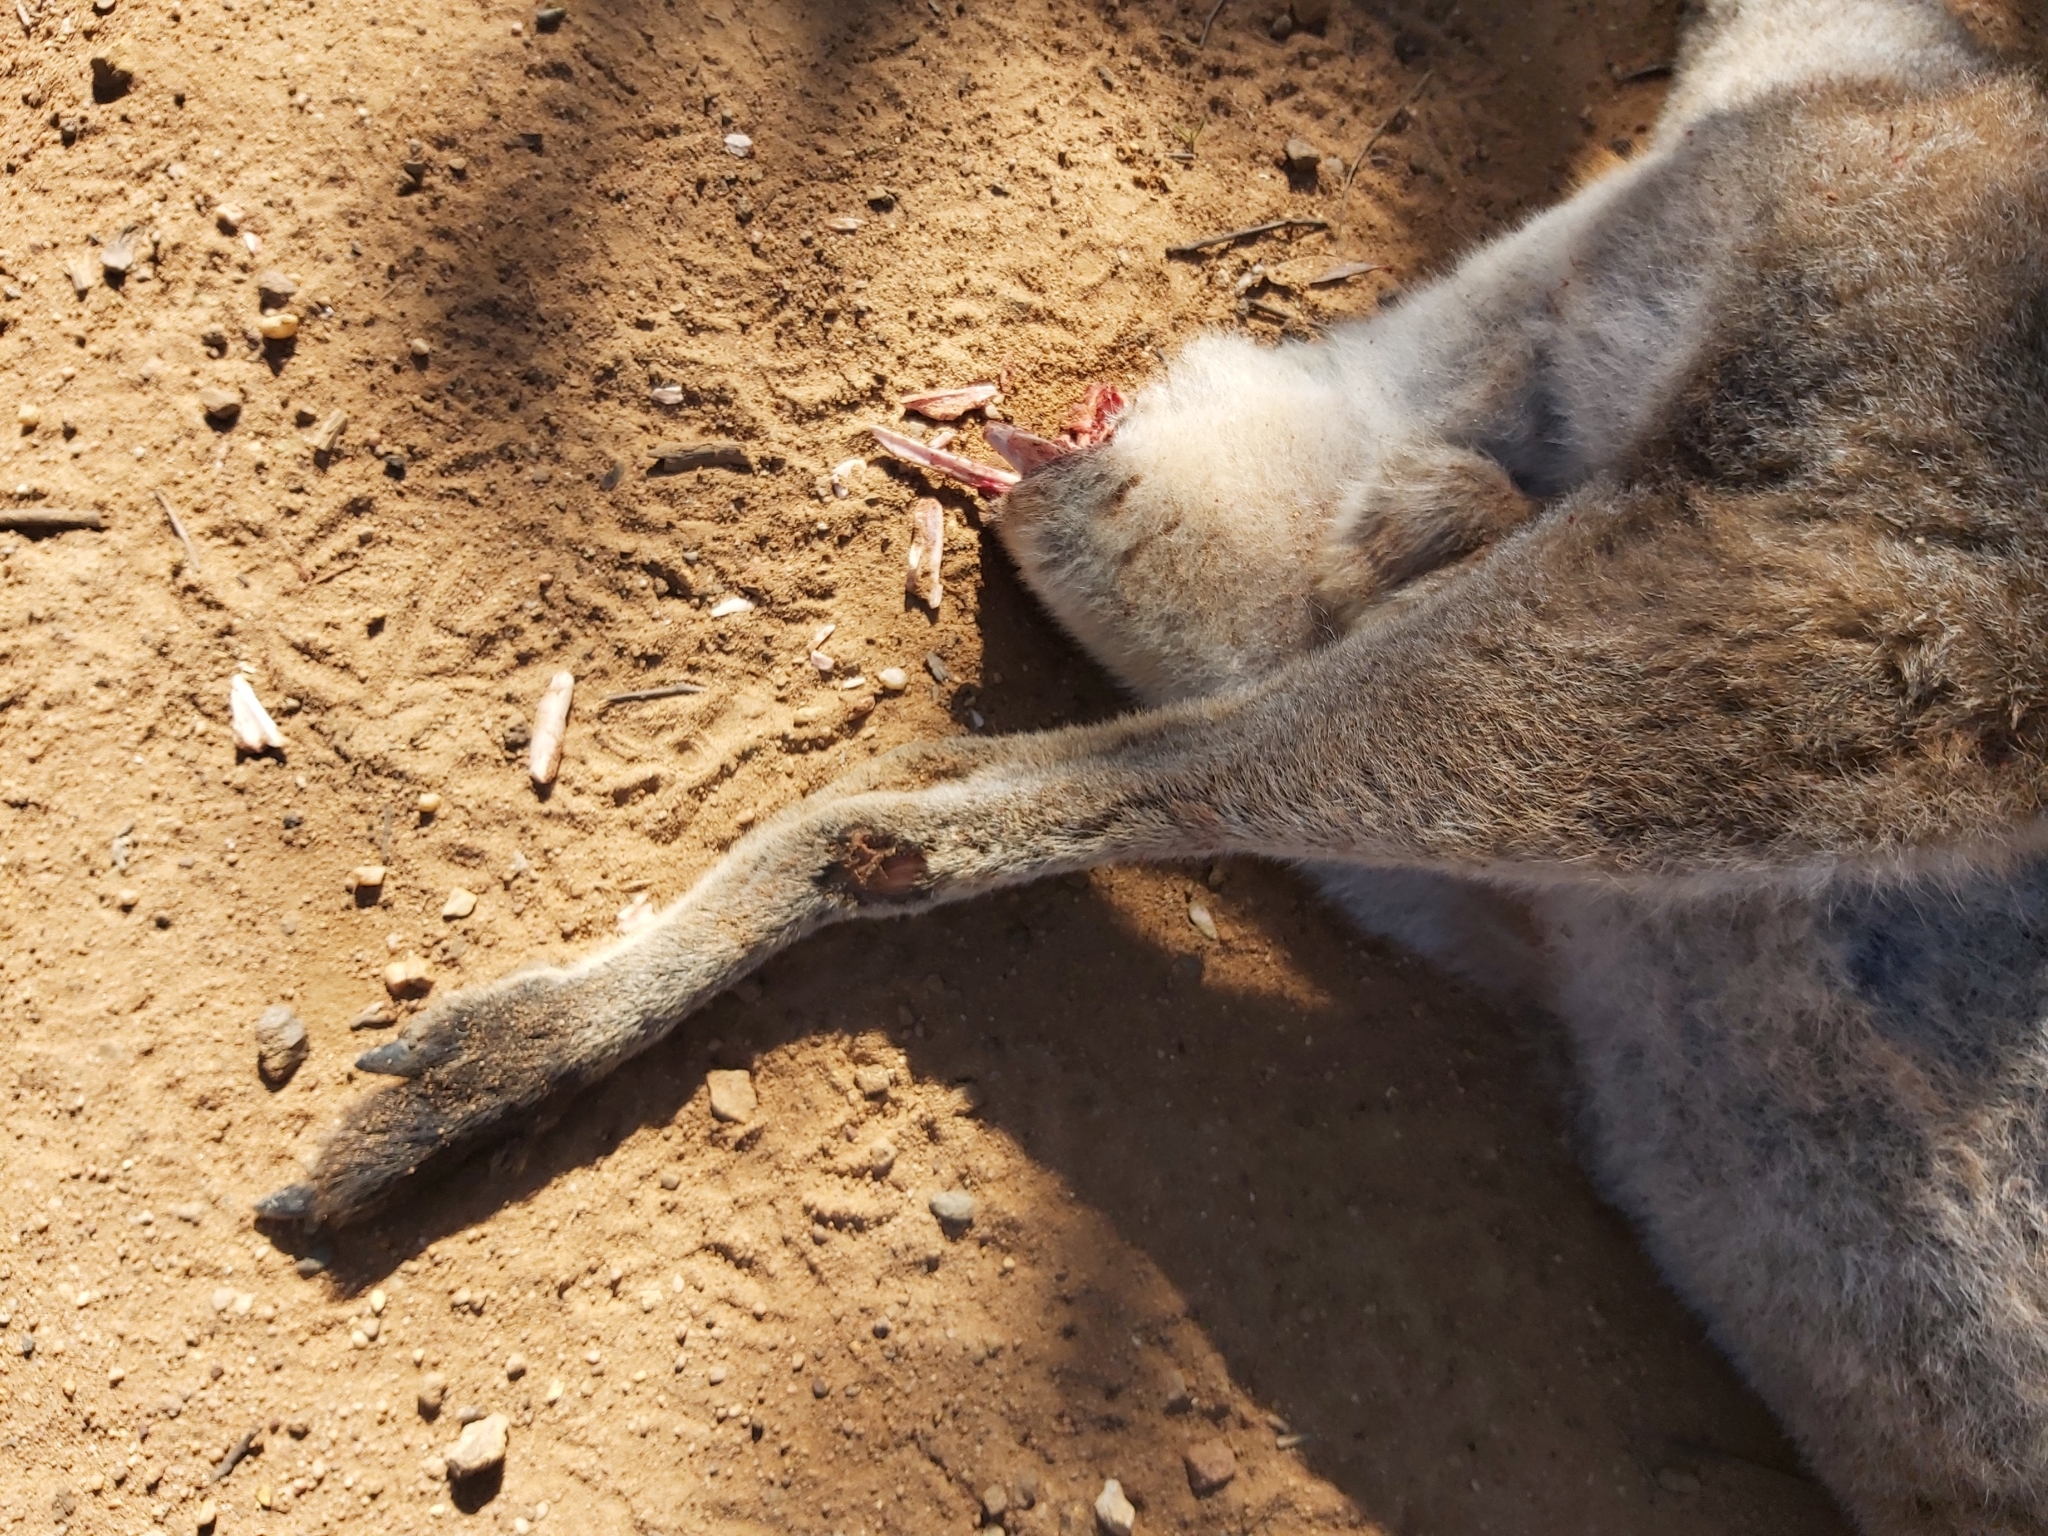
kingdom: Animalia
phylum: Chordata
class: Mammalia
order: Diprotodontia
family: Macropodidae
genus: Notamacropus
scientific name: Notamacropus rufogriseus
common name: Red-necked wallaby
